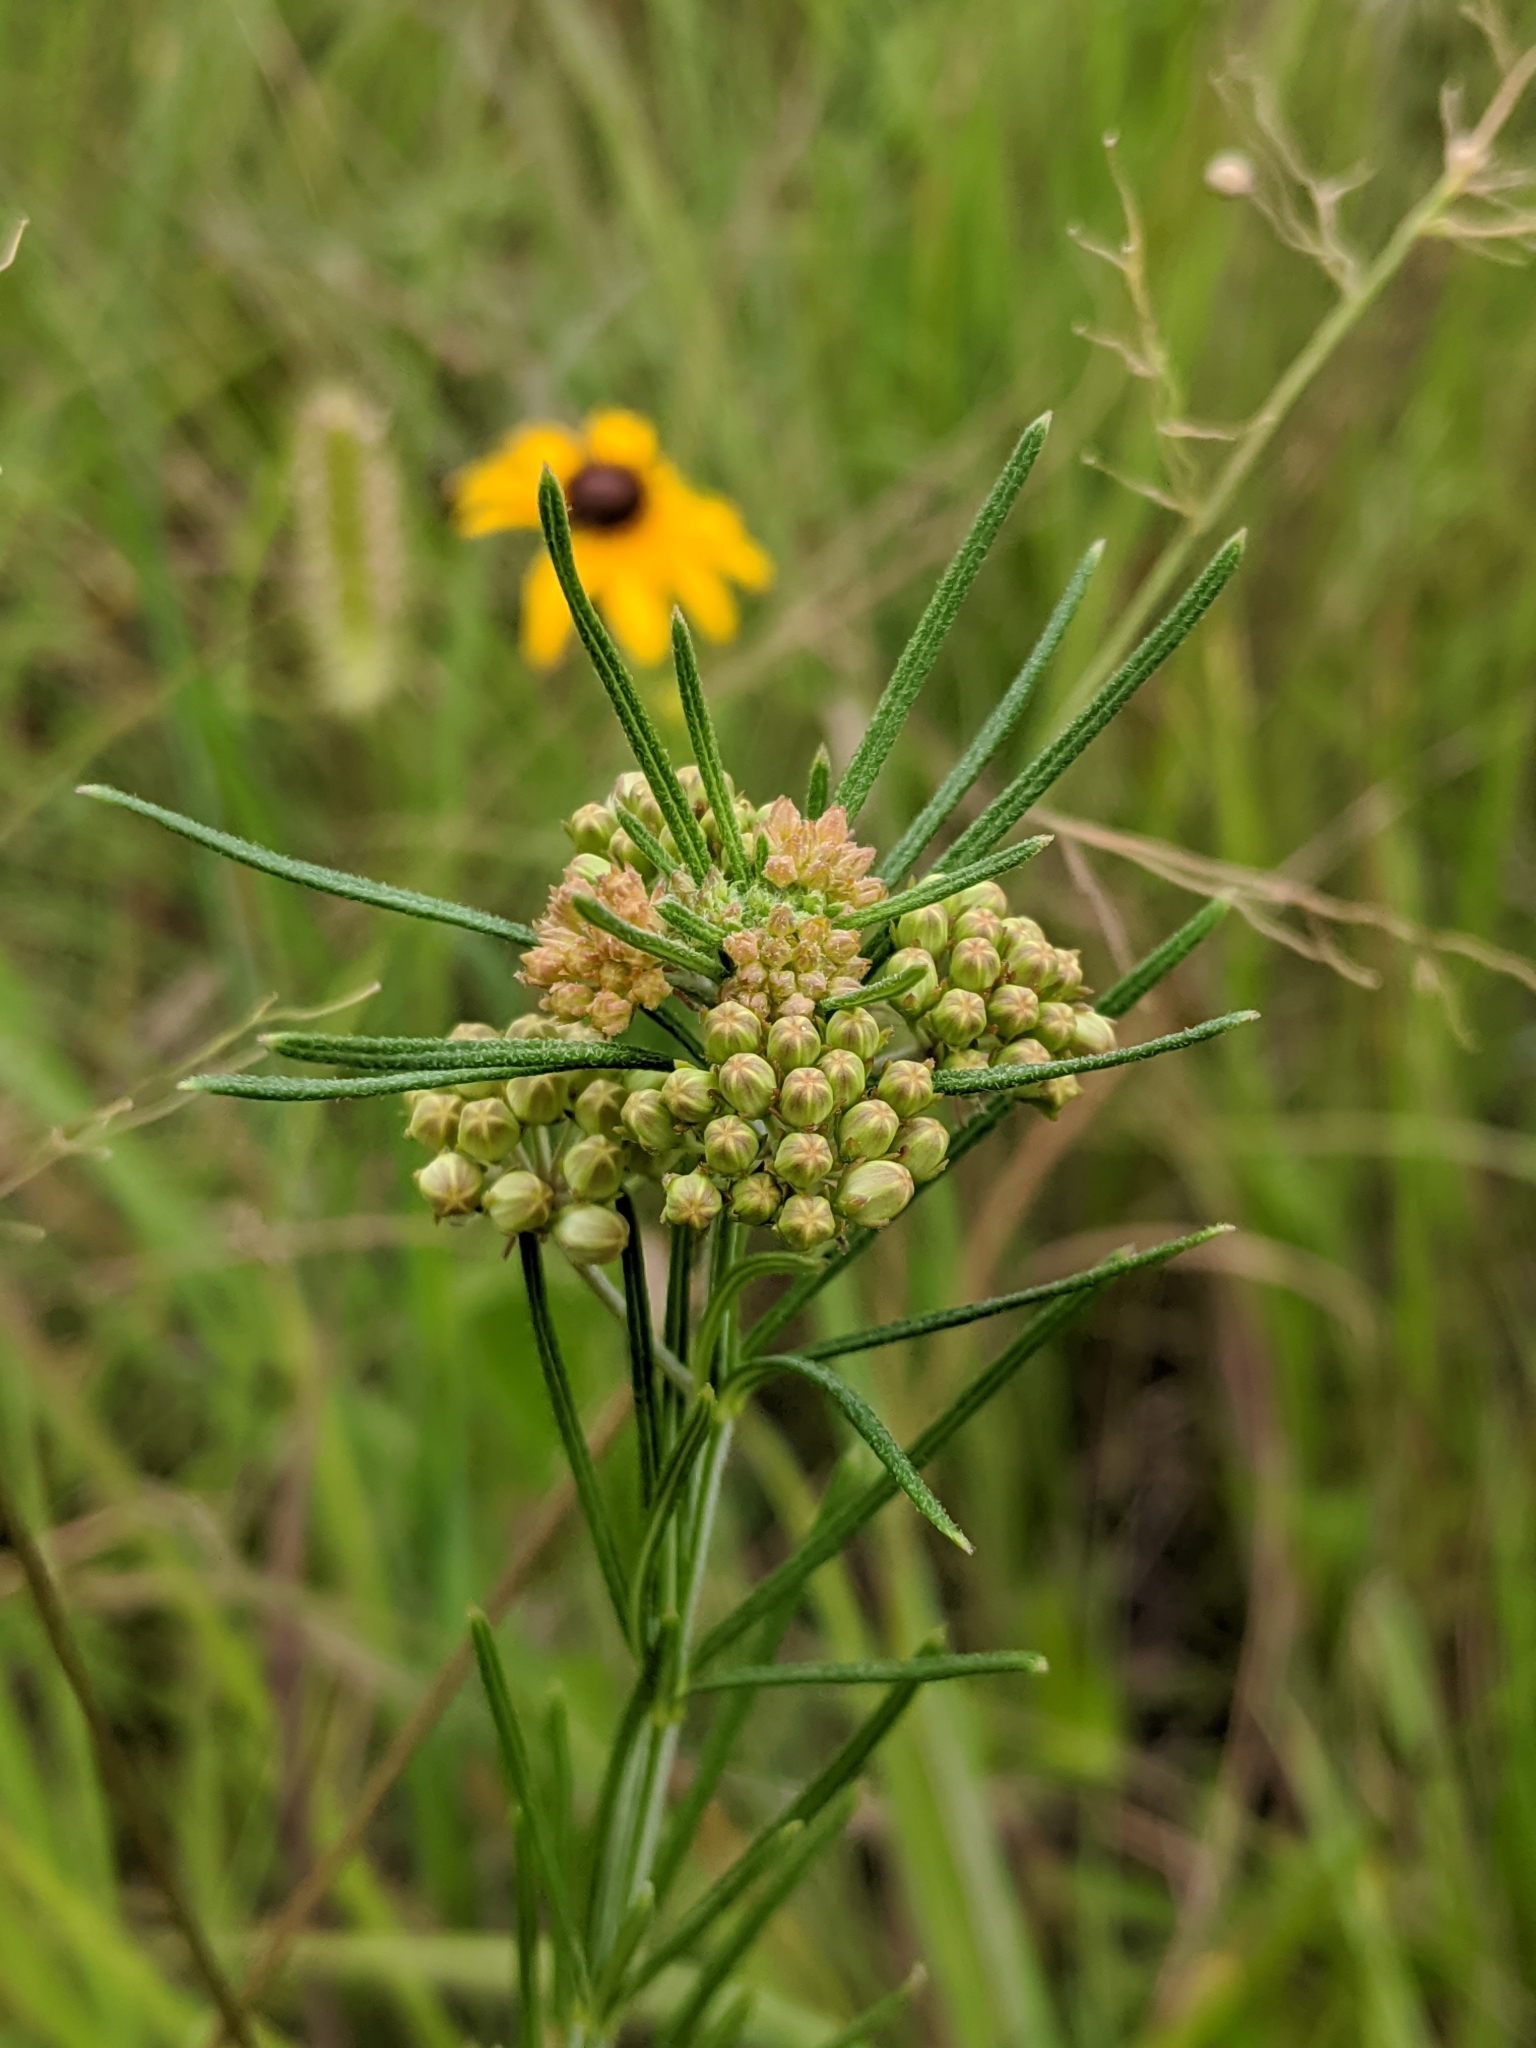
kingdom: Plantae
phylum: Tracheophyta
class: Magnoliopsida
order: Gentianales
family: Apocynaceae
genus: Asclepias
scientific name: Asclepias verticillata
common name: Eastern whorled milkweed
